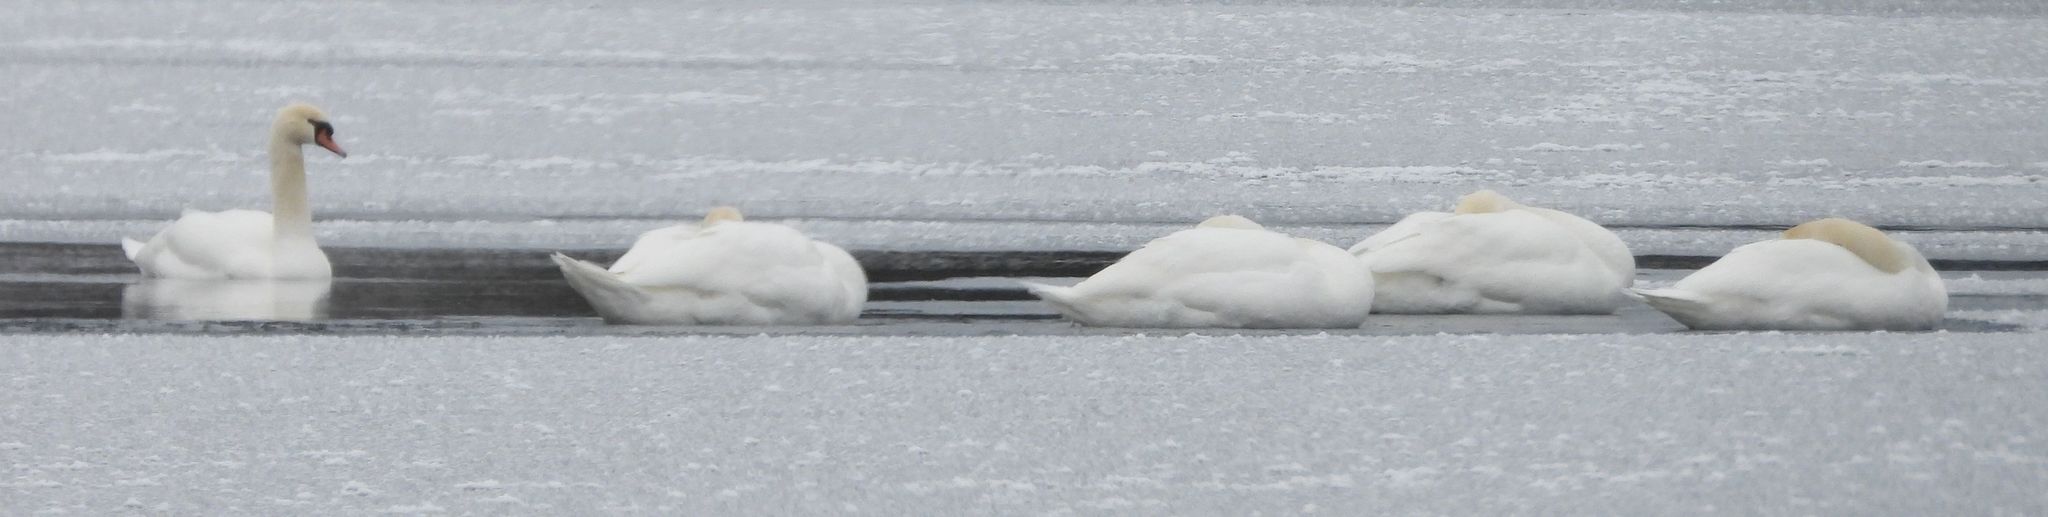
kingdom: Animalia
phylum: Chordata
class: Aves
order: Anseriformes
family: Anatidae
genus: Cygnus
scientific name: Cygnus olor
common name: Mute swan
